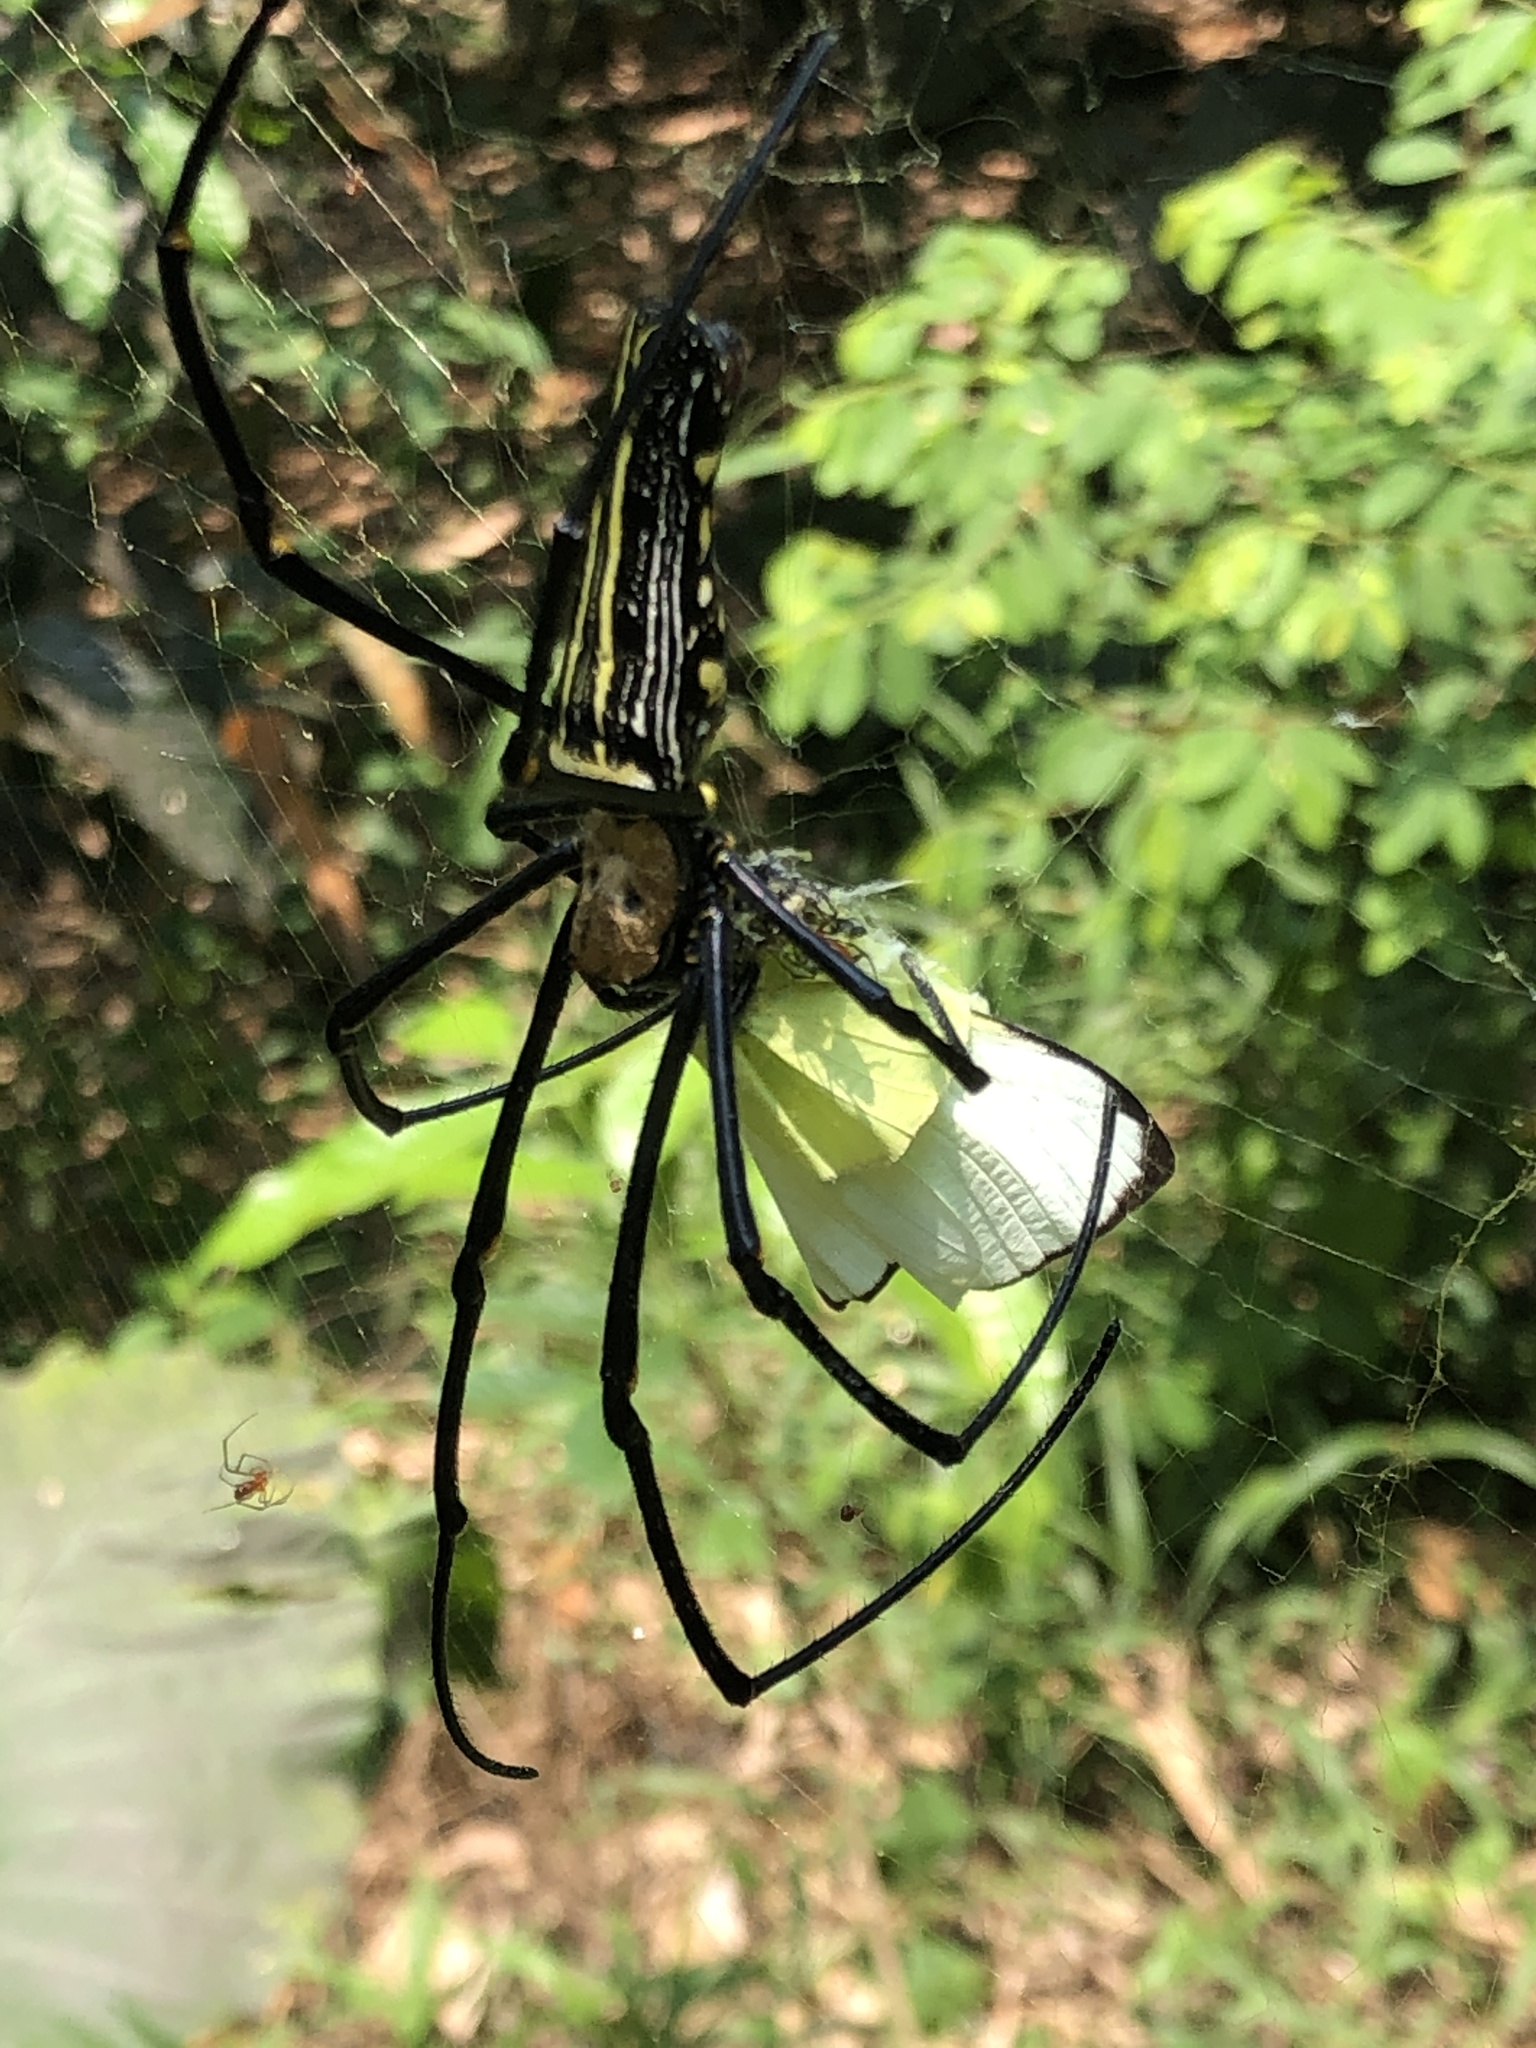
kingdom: Animalia
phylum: Arthropoda
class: Arachnida
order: Araneae
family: Araneidae
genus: Nephila
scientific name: Nephila pilipes
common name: Giant golden orb weaver
